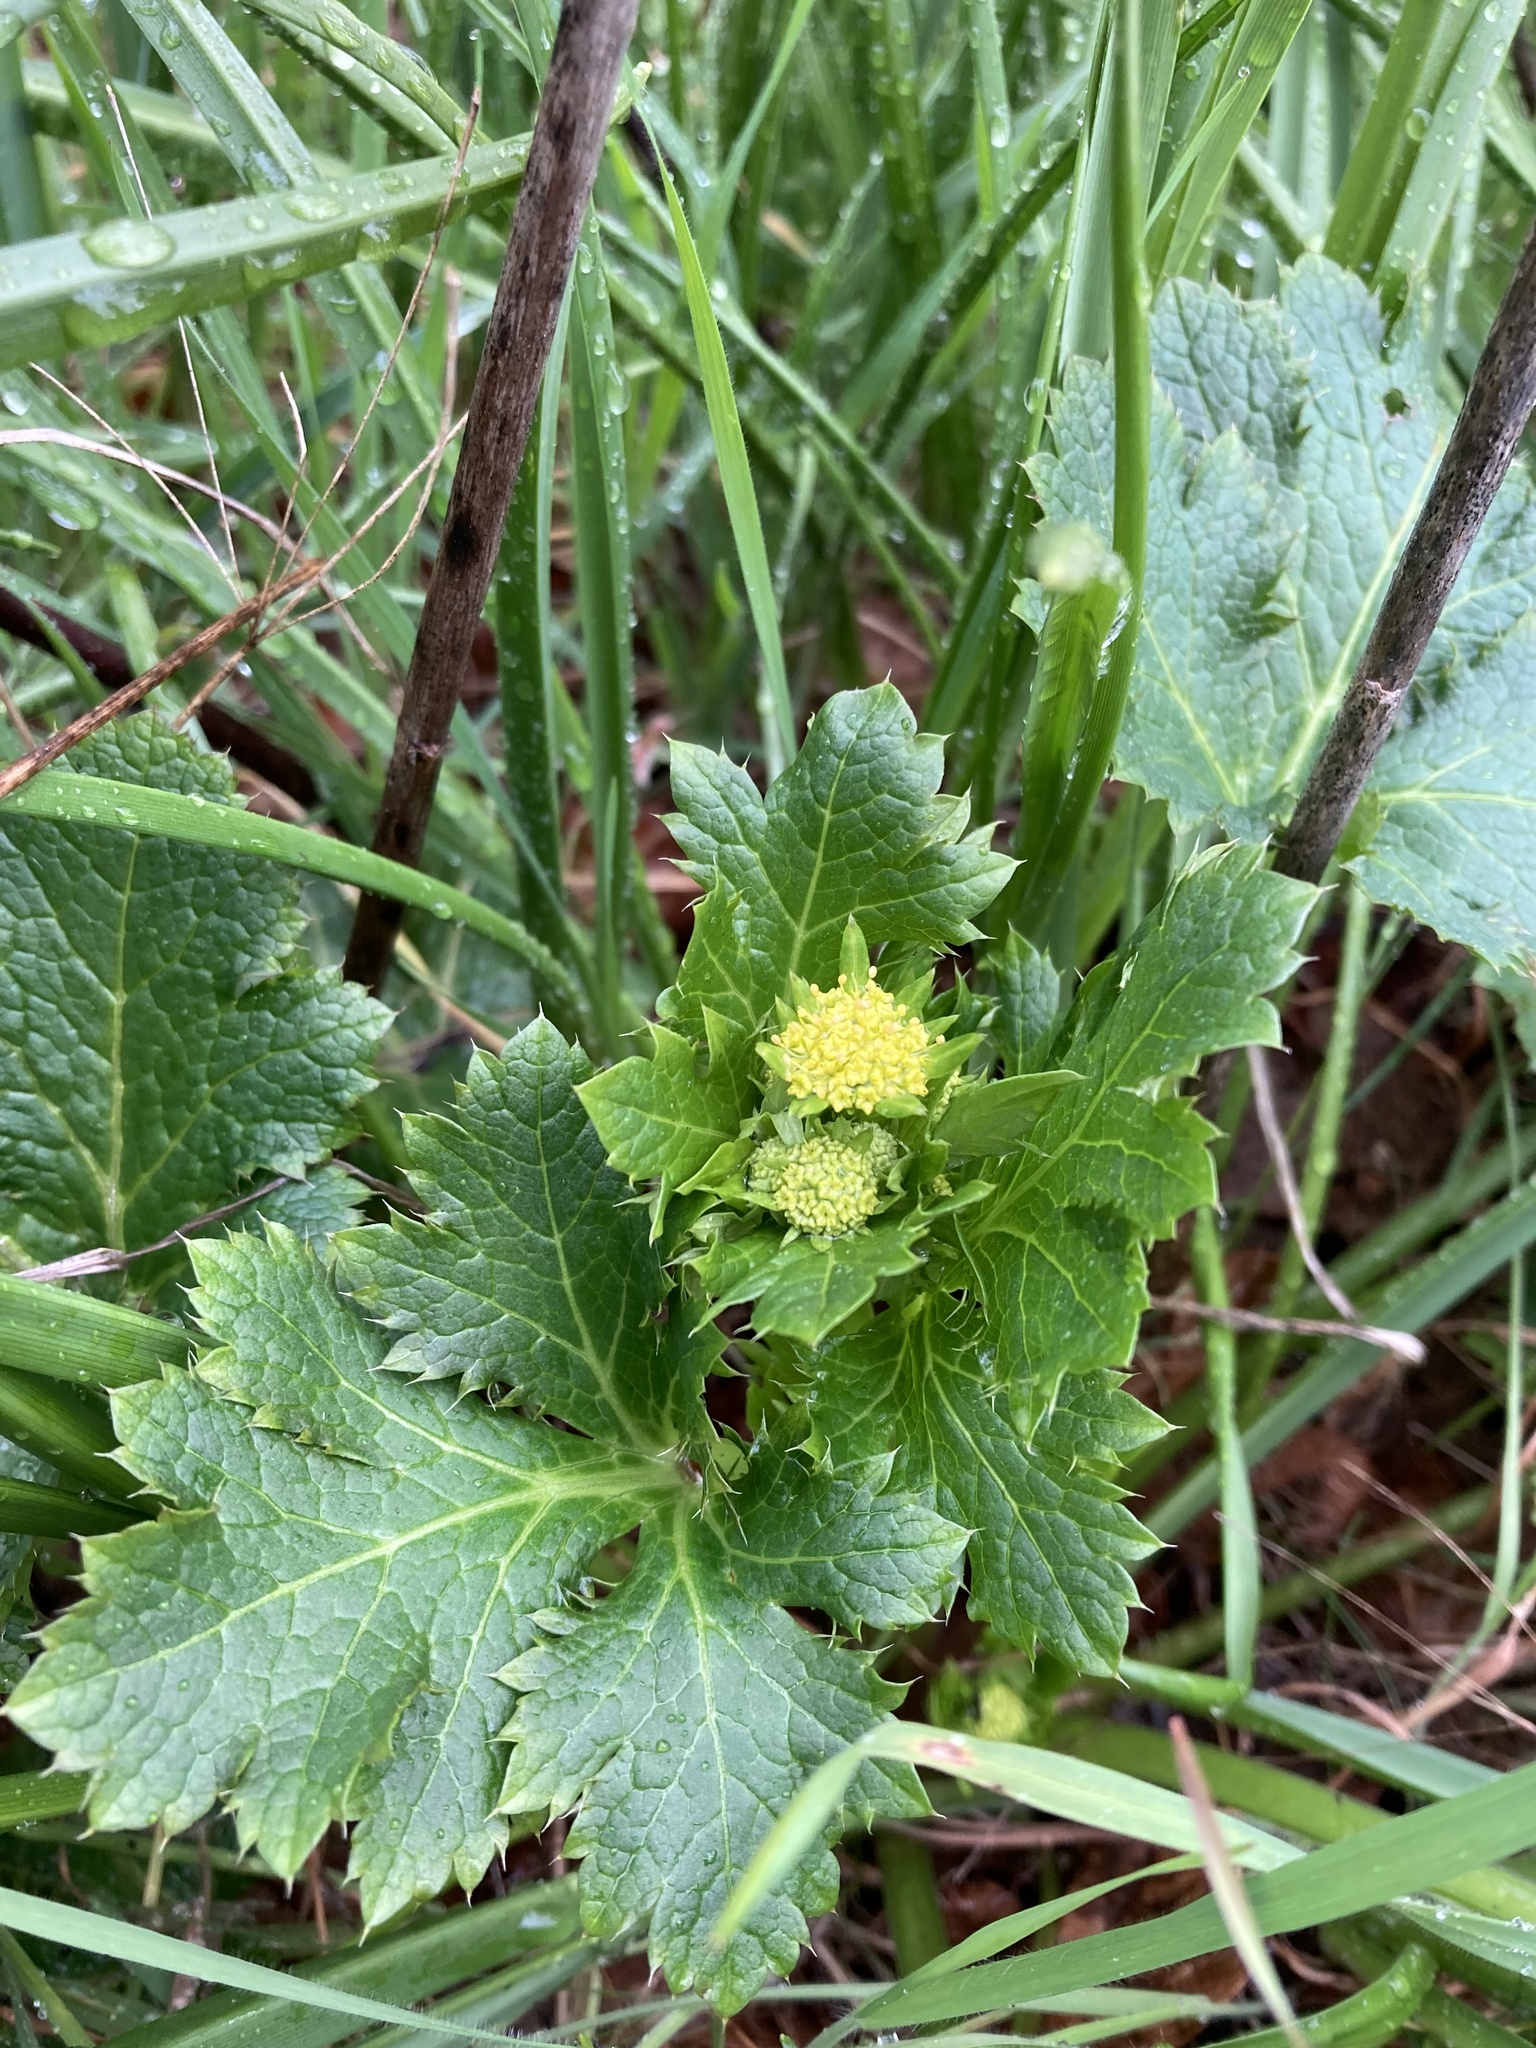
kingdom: Plantae
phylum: Tracheophyta
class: Magnoliopsida
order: Apiales
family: Apiaceae
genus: Sanicula
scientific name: Sanicula crassicaulis
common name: Western snakeroot
